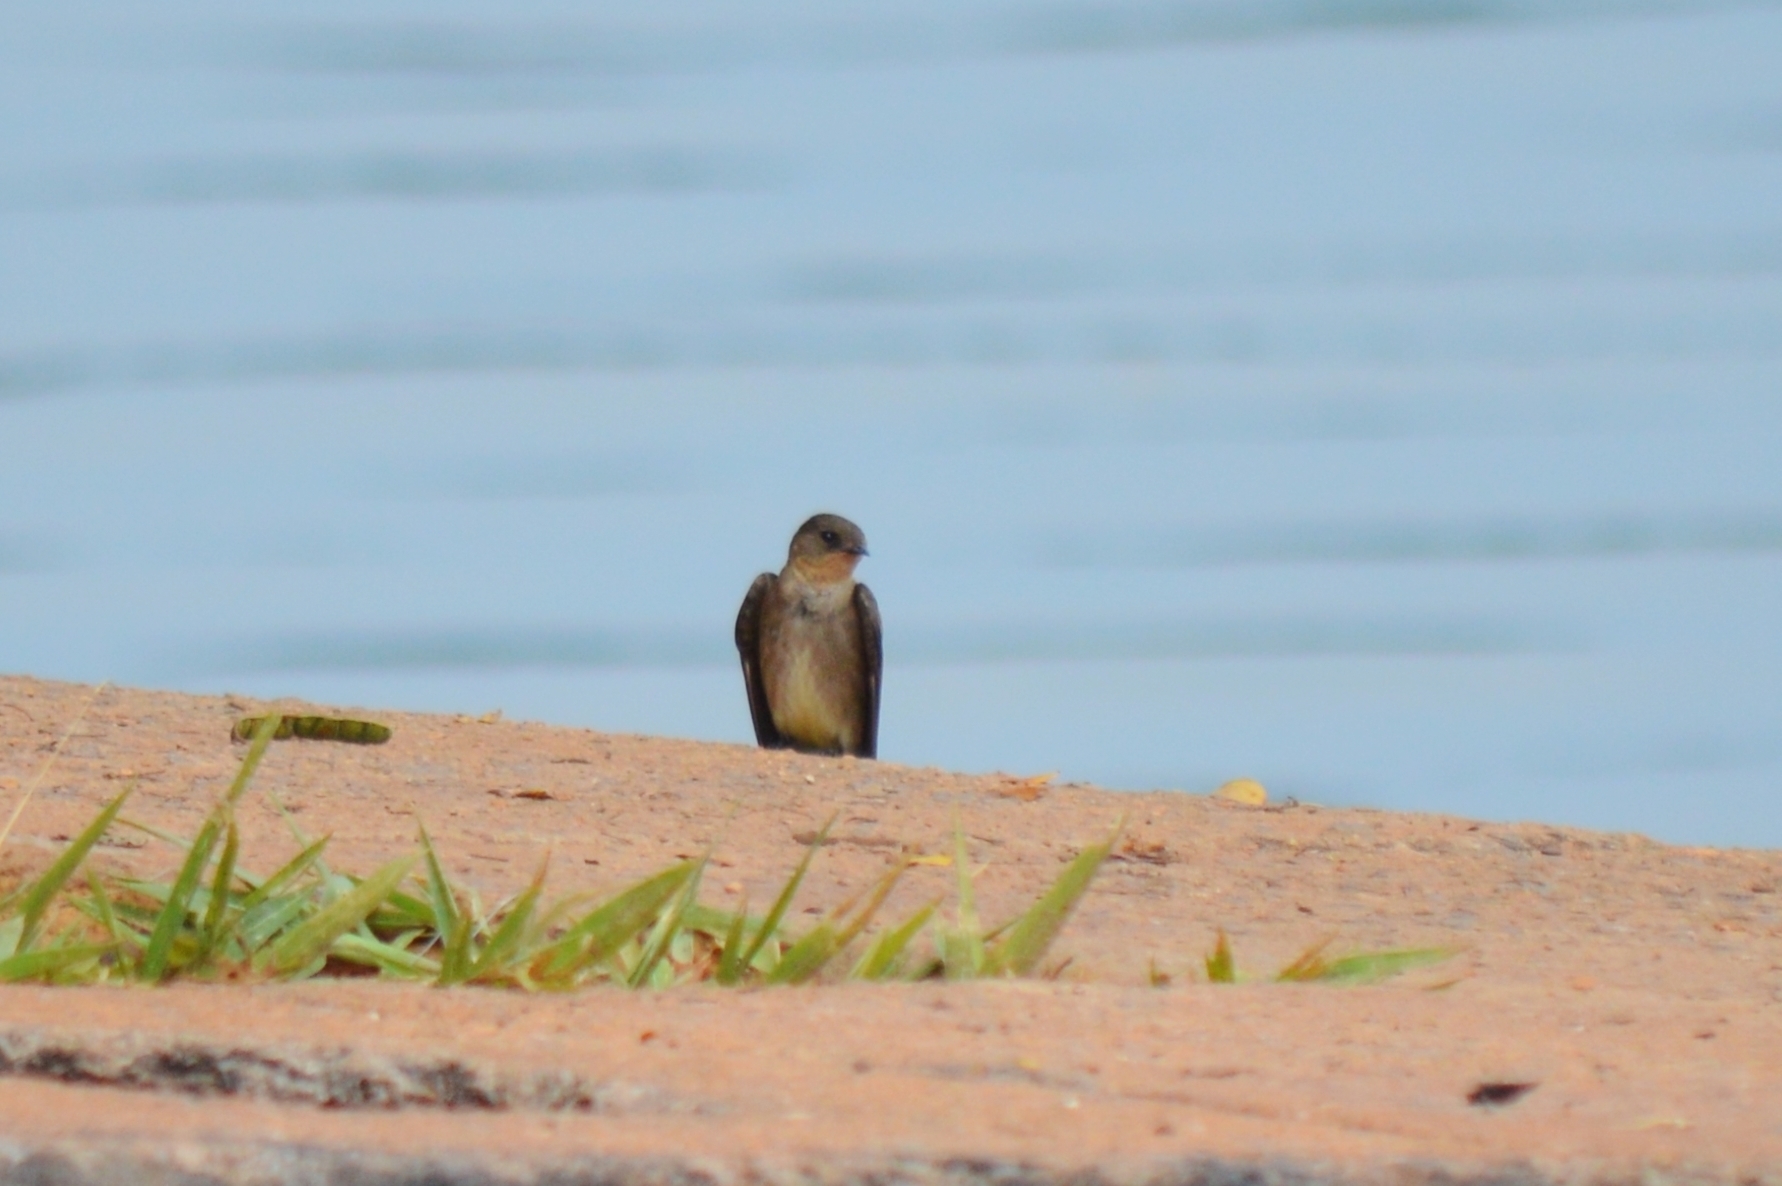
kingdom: Animalia
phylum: Chordata
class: Aves
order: Passeriformes
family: Hirundinidae
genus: Stelgidopteryx
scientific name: Stelgidopteryx ruficollis
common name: Southern rough-winged swallow
